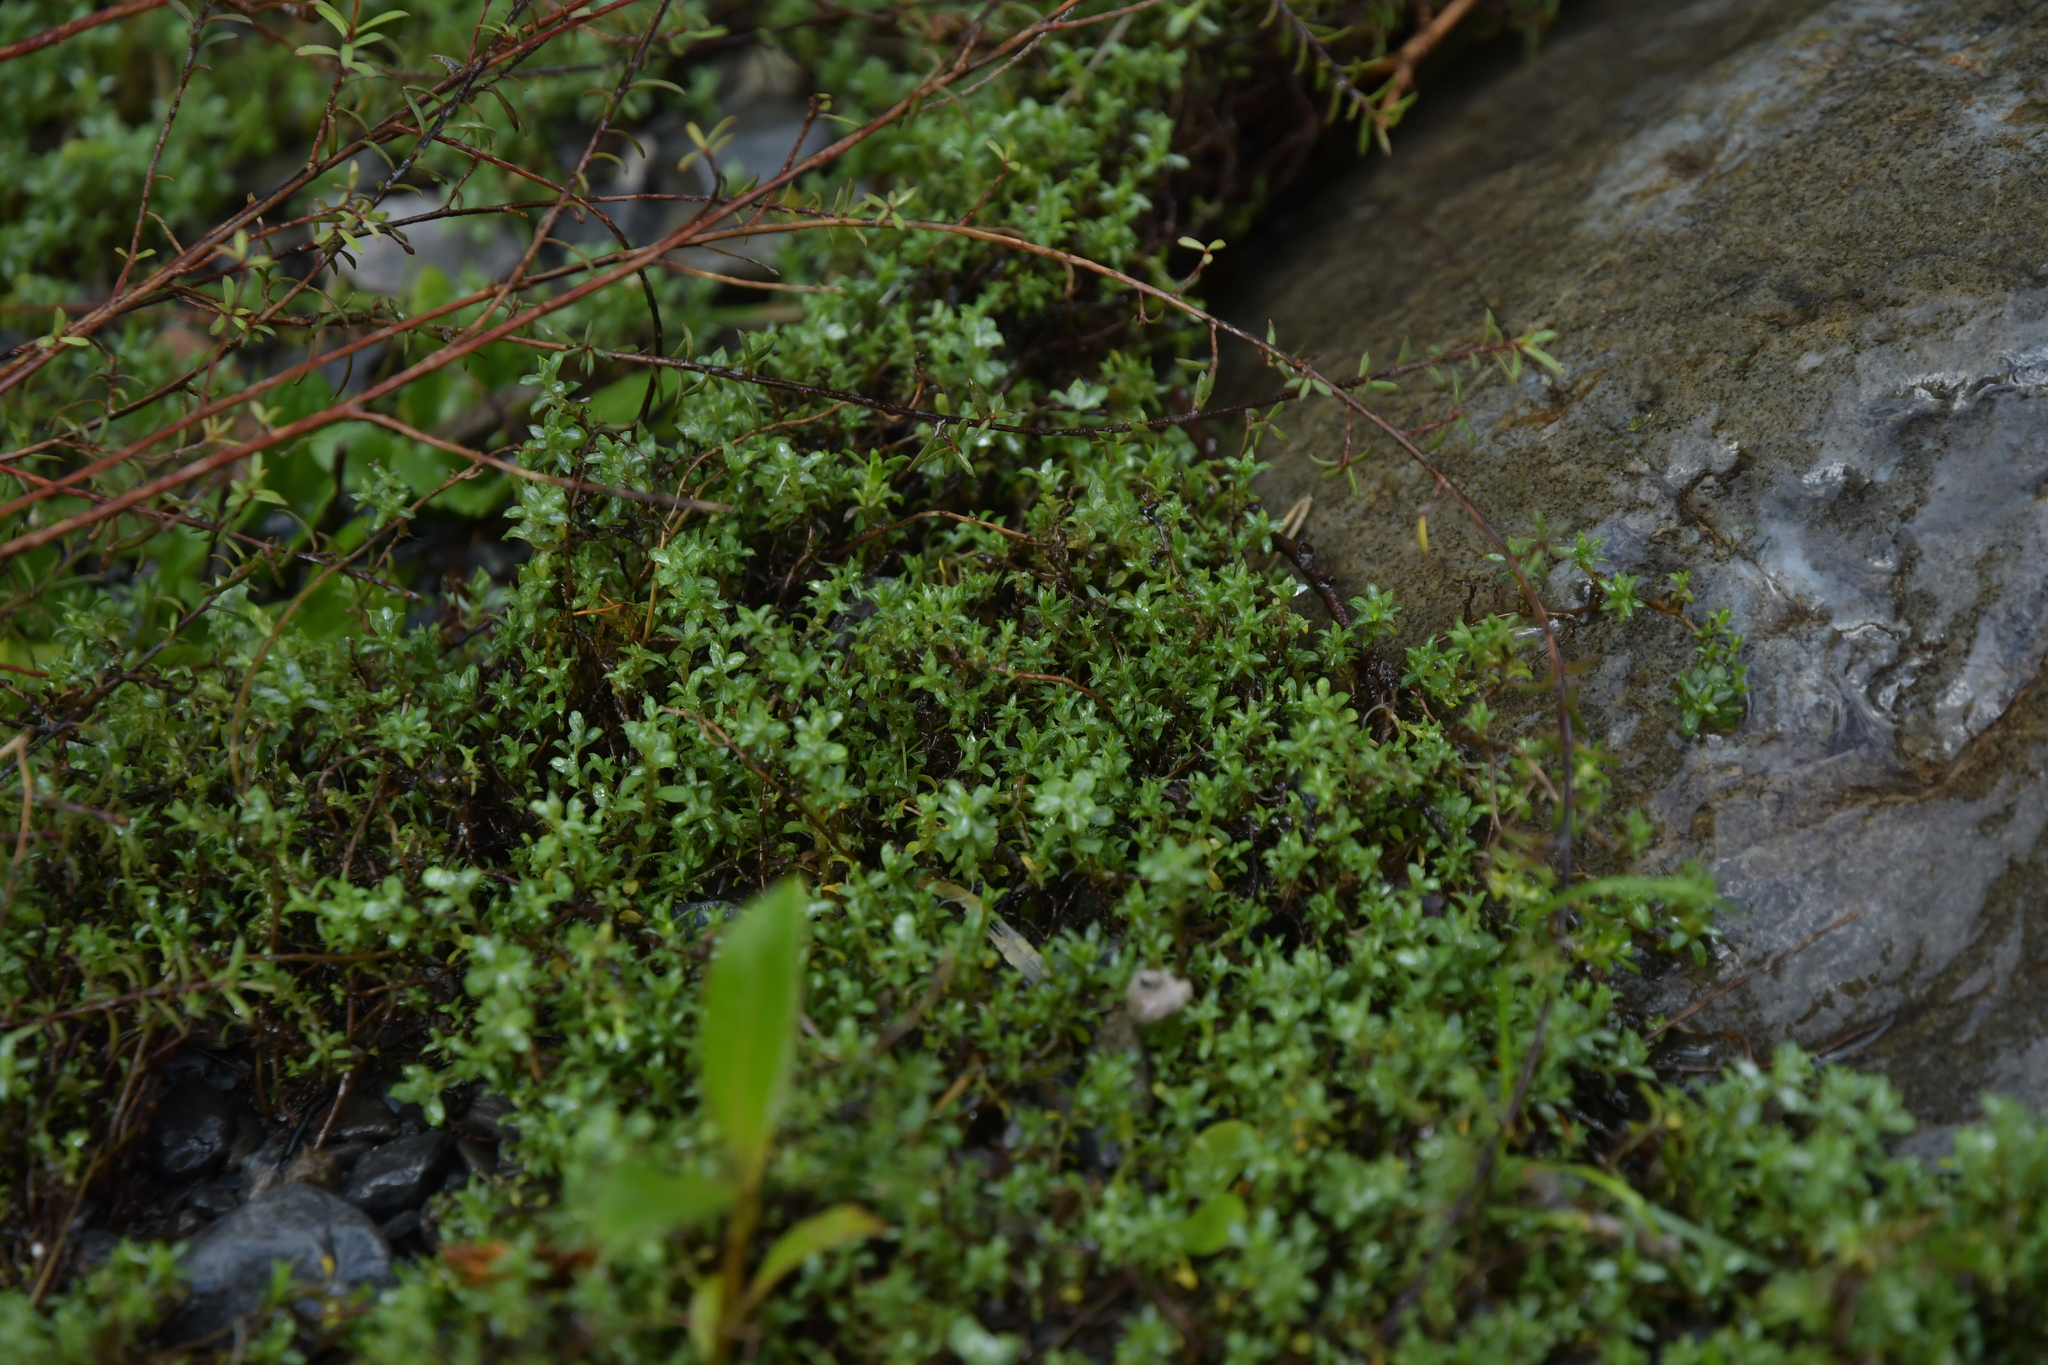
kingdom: Plantae
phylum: Tracheophyta
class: Magnoliopsida
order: Asterales
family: Asteraceae
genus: Raoulia
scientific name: Raoulia tenuicaulis
